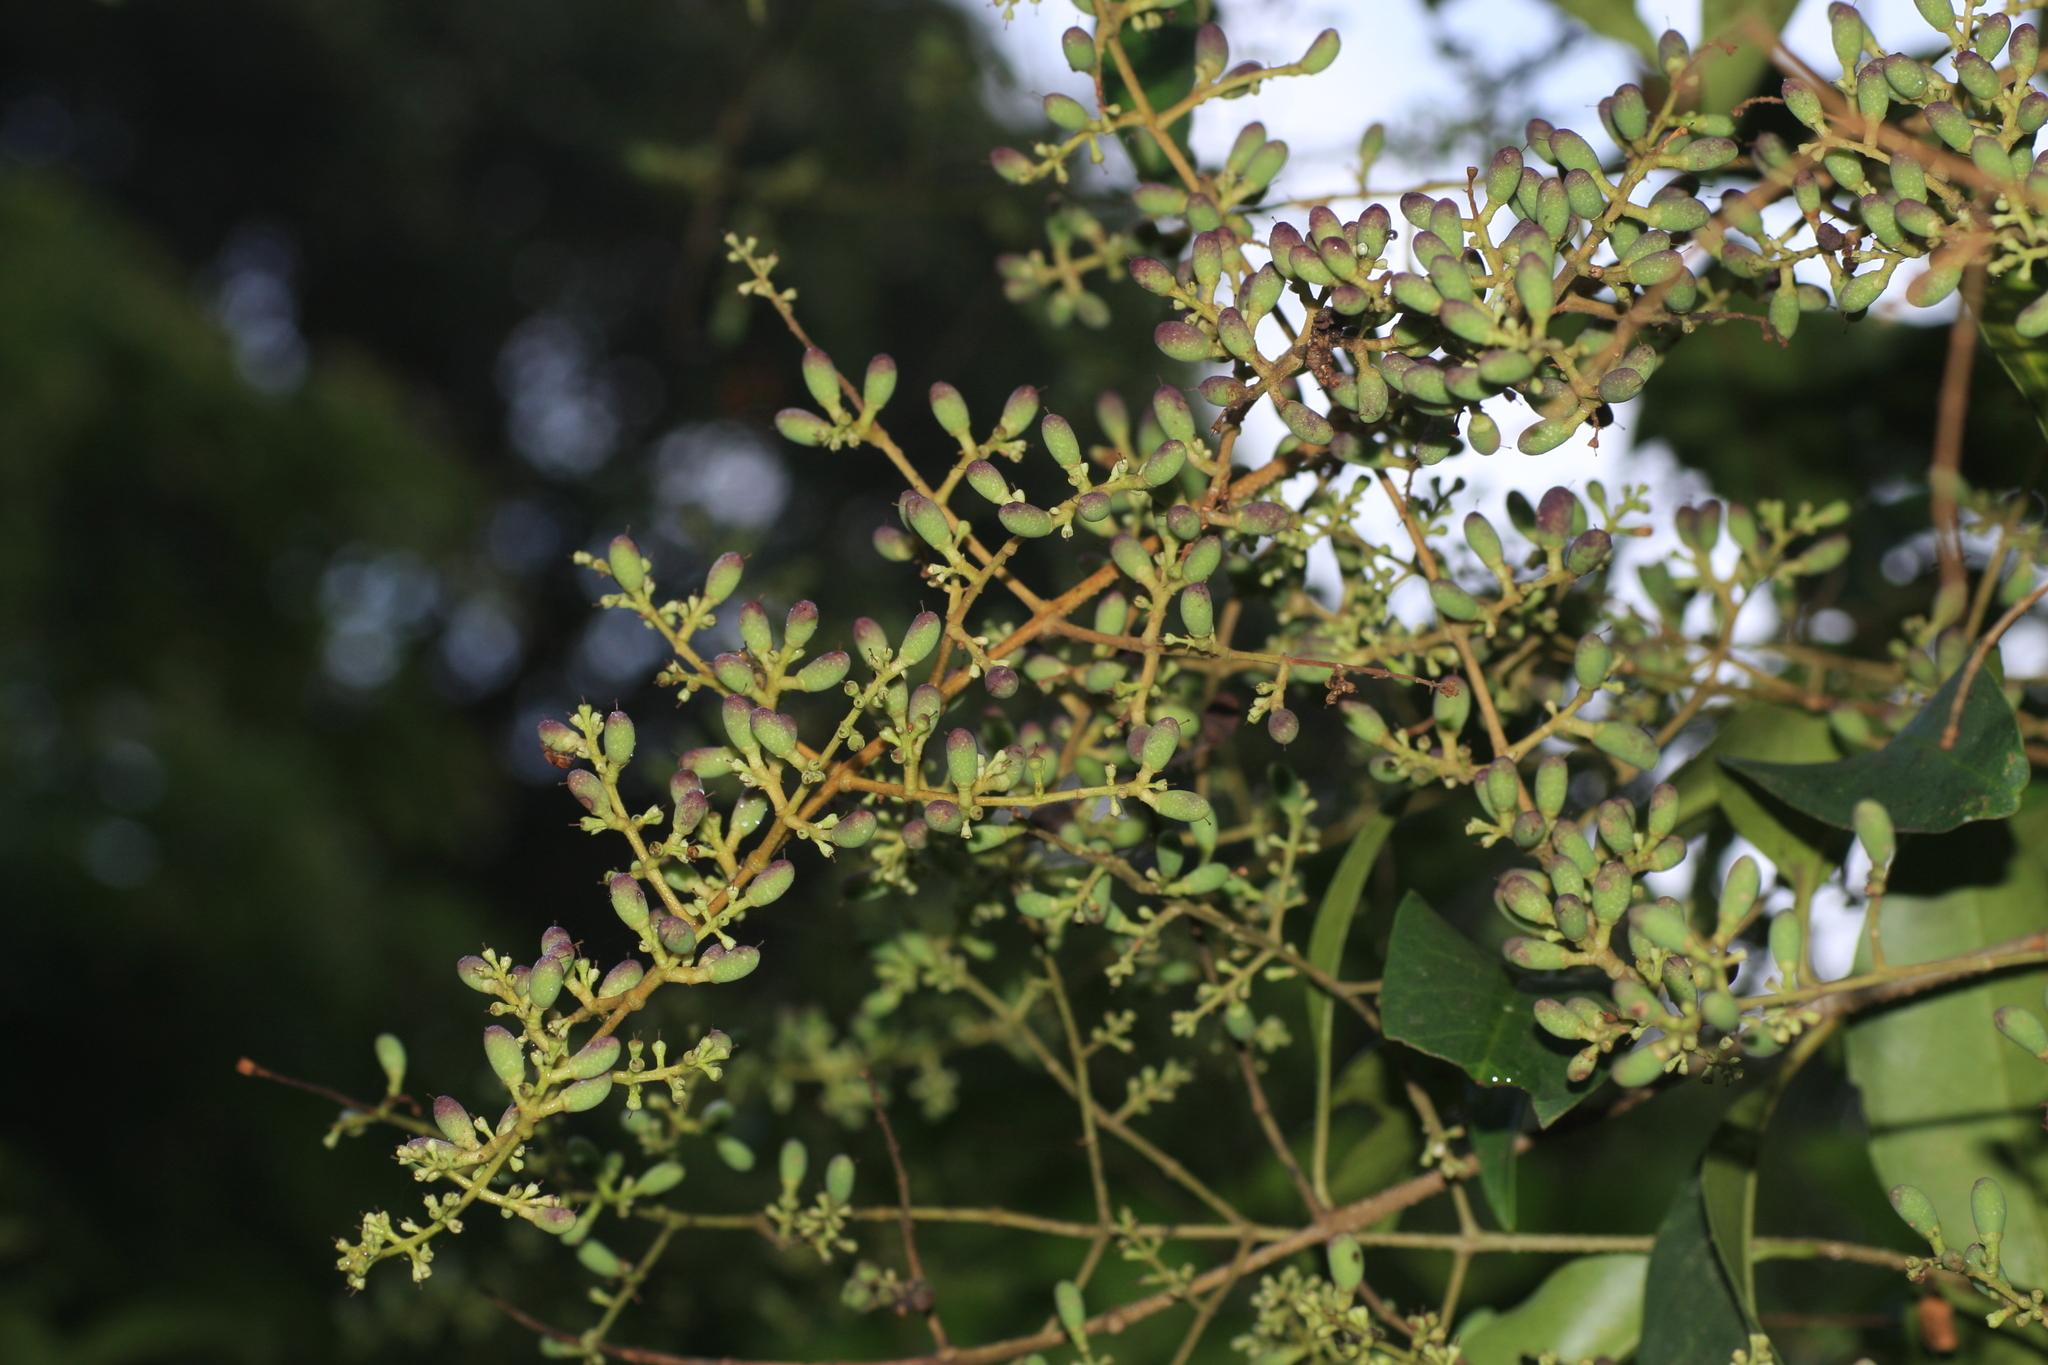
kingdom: Plantae
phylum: Tracheophyta
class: Magnoliopsida
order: Lamiales
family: Oleaceae
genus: Ligustrum
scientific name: Ligustrum robustum
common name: Tree privet
